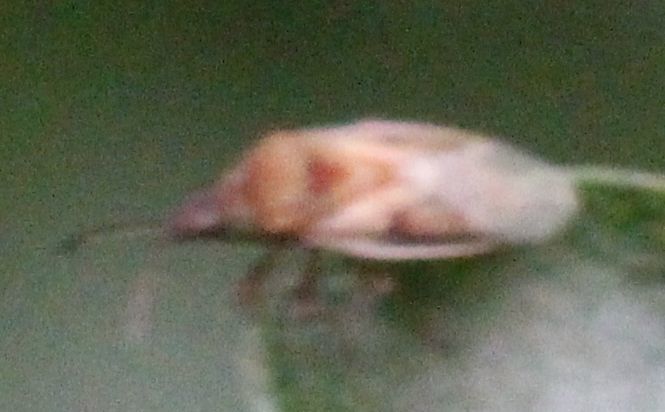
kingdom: Animalia
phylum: Arthropoda
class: Insecta
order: Hemiptera
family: Lygaeidae
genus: Kleidocerys
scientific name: Kleidocerys resedae
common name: Birch catkin bug
